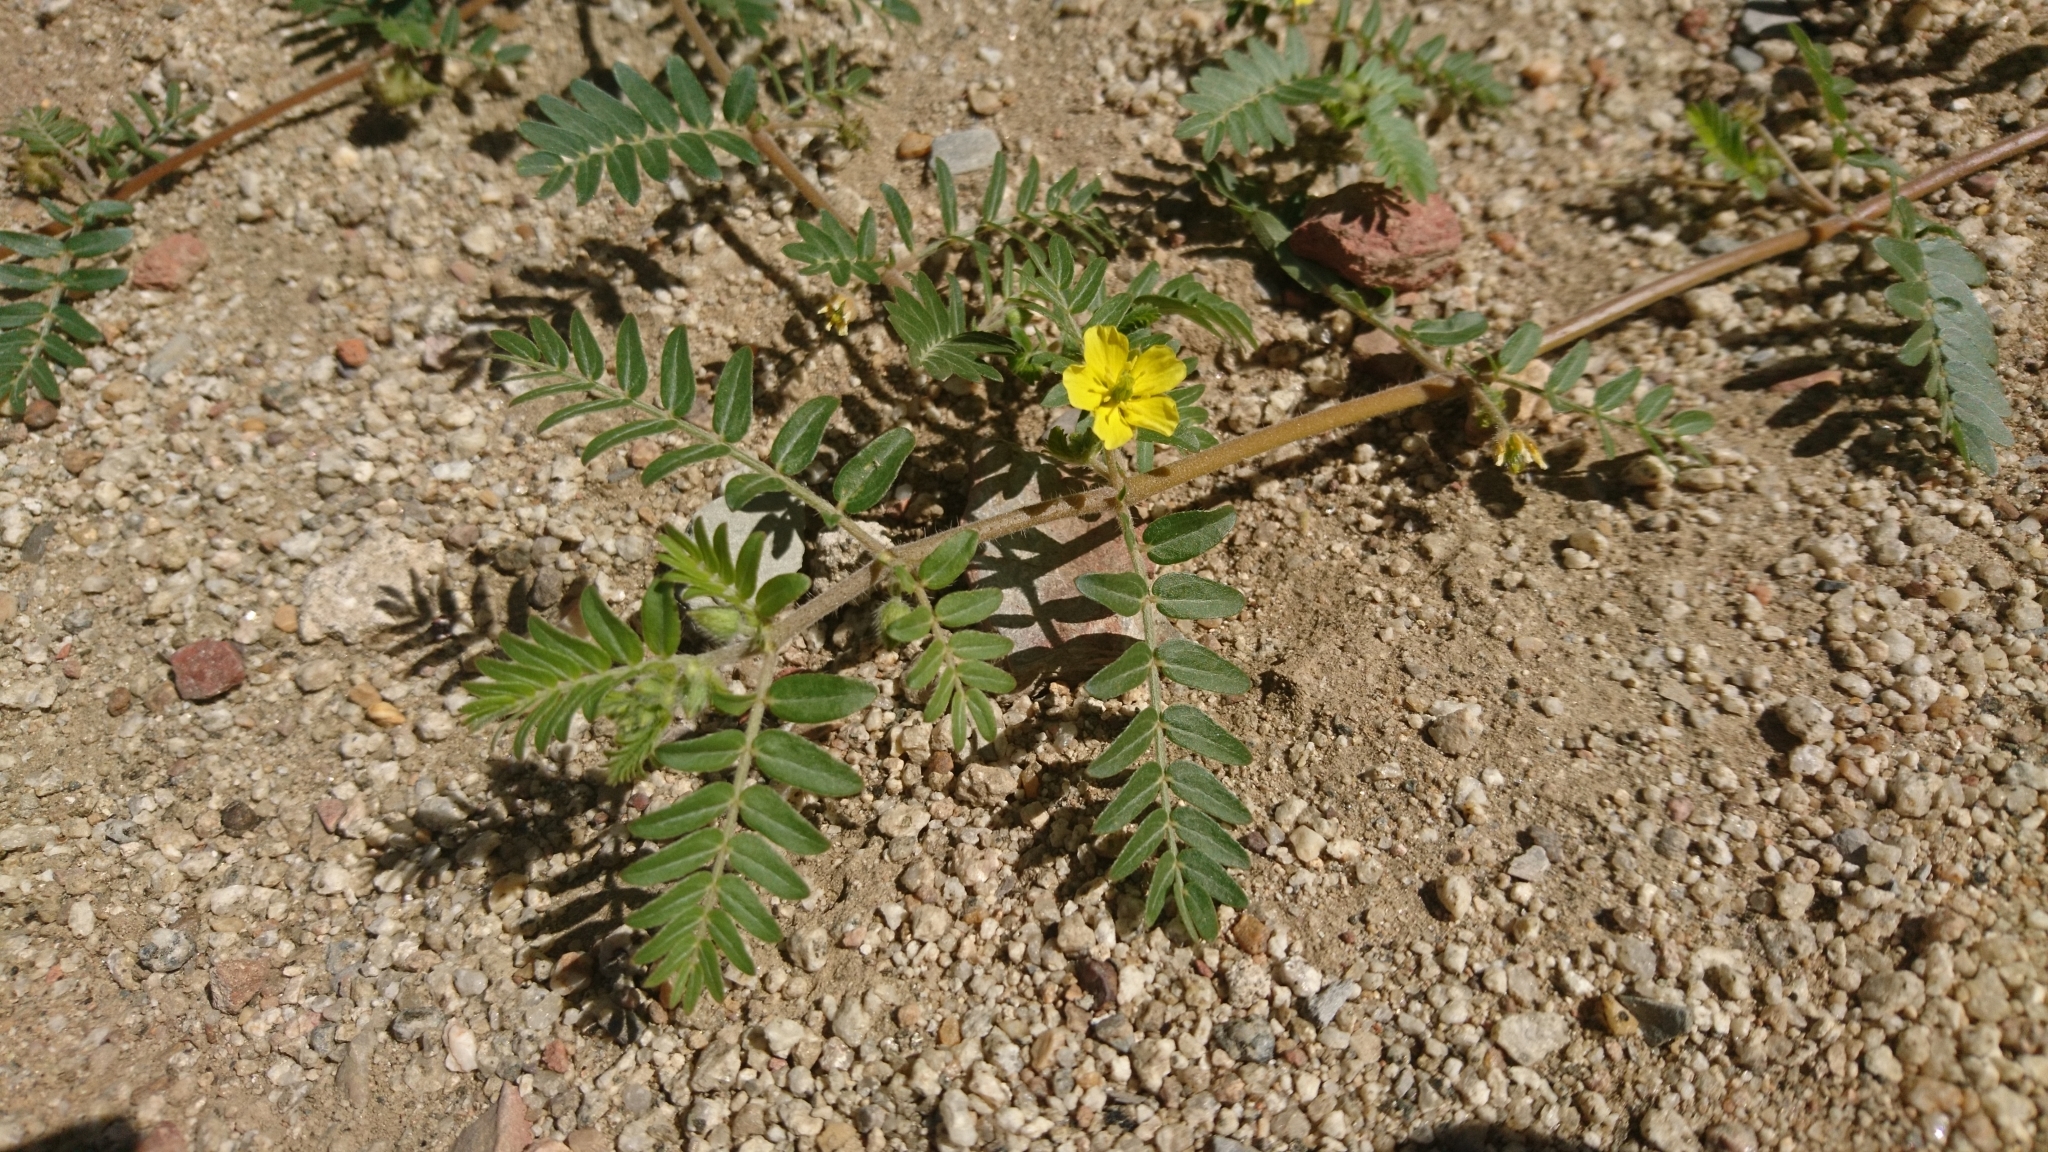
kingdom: Plantae
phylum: Tracheophyta
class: Magnoliopsida
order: Zygophyllales
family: Zygophyllaceae
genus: Tribulus
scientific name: Tribulus terrestris
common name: Puncturevine
